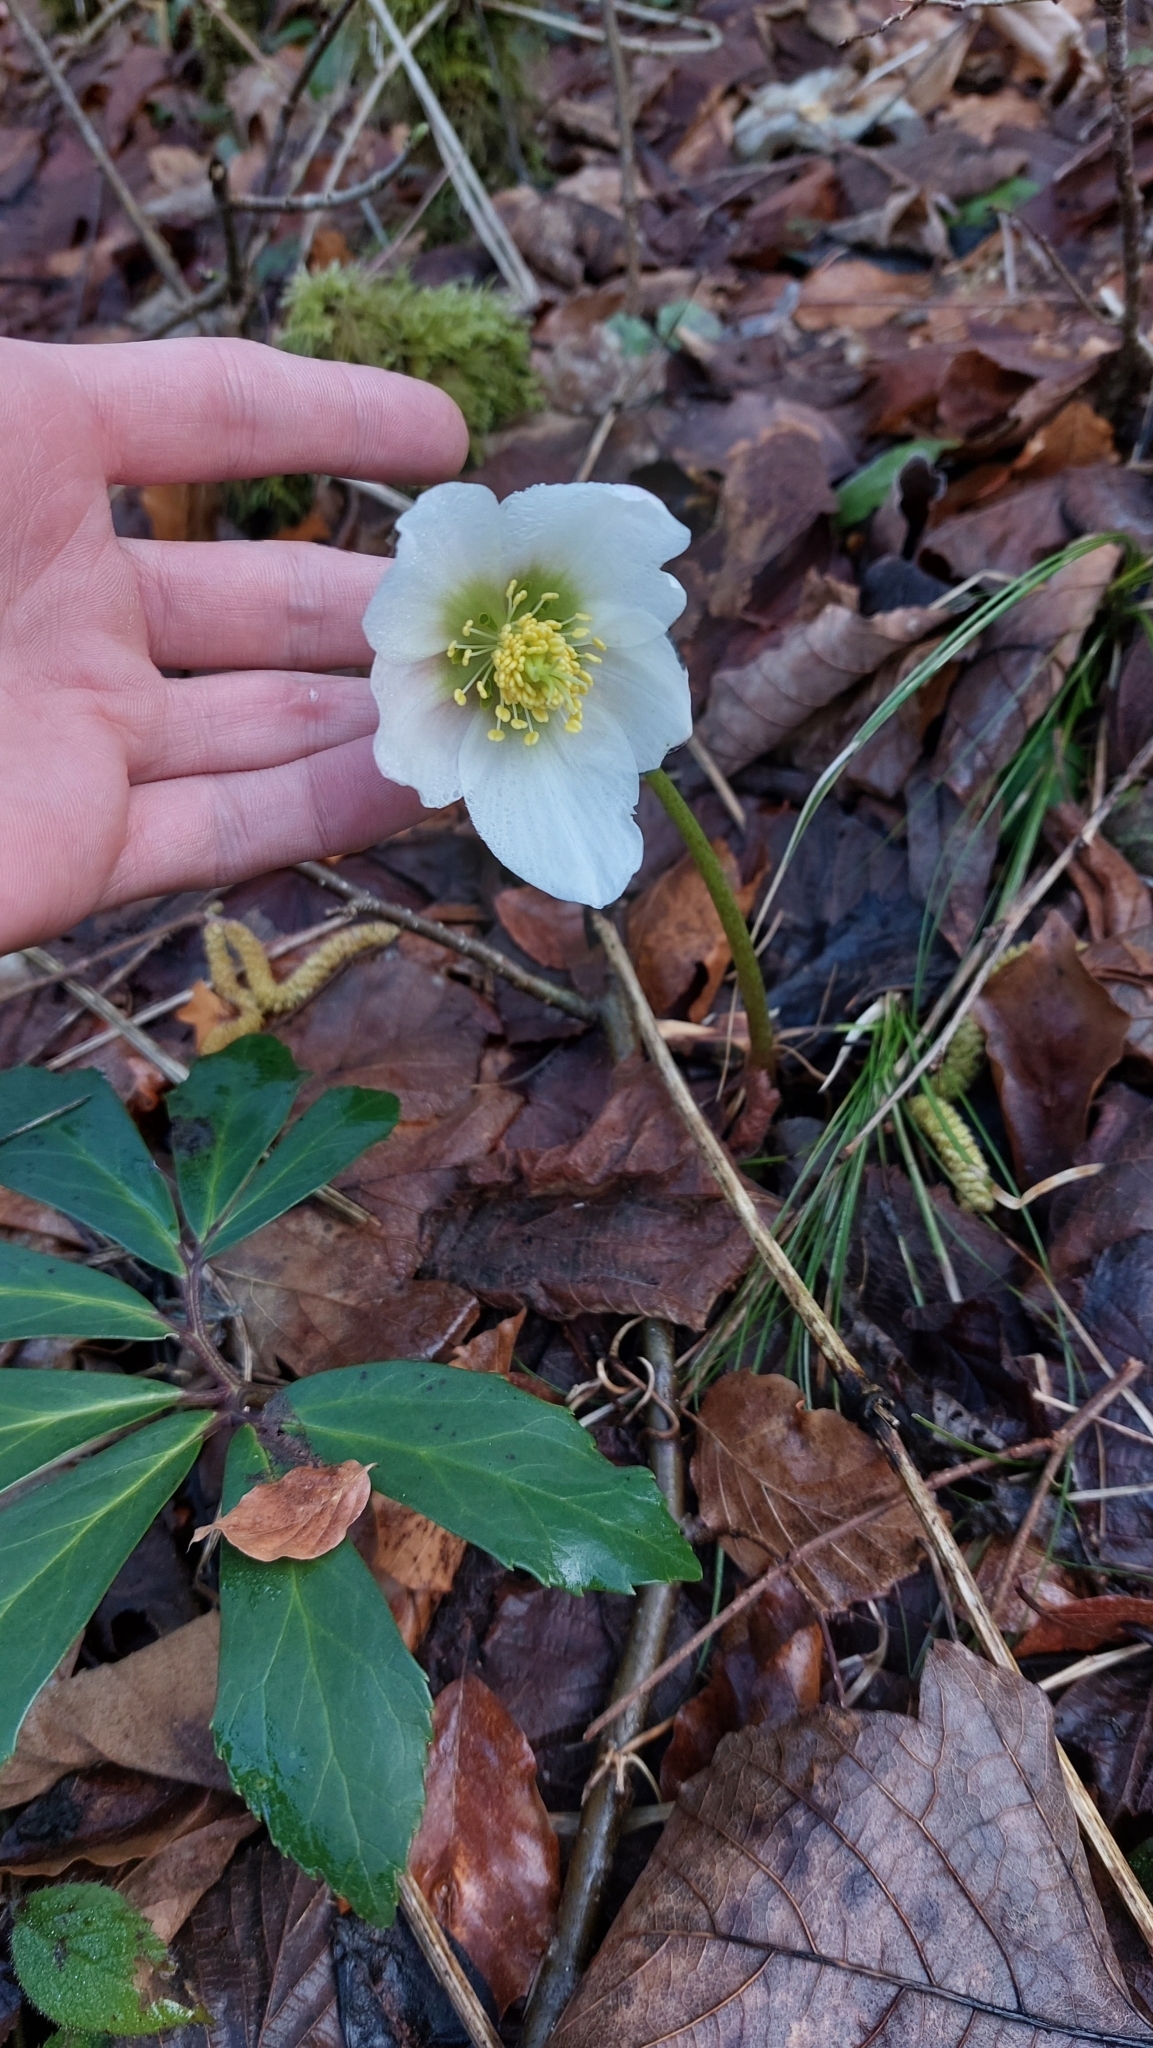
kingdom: Plantae
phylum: Tracheophyta
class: Magnoliopsida
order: Ranunculales
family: Ranunculaceae
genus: Helleborus
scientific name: Helleborus niger
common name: Black hellebore
